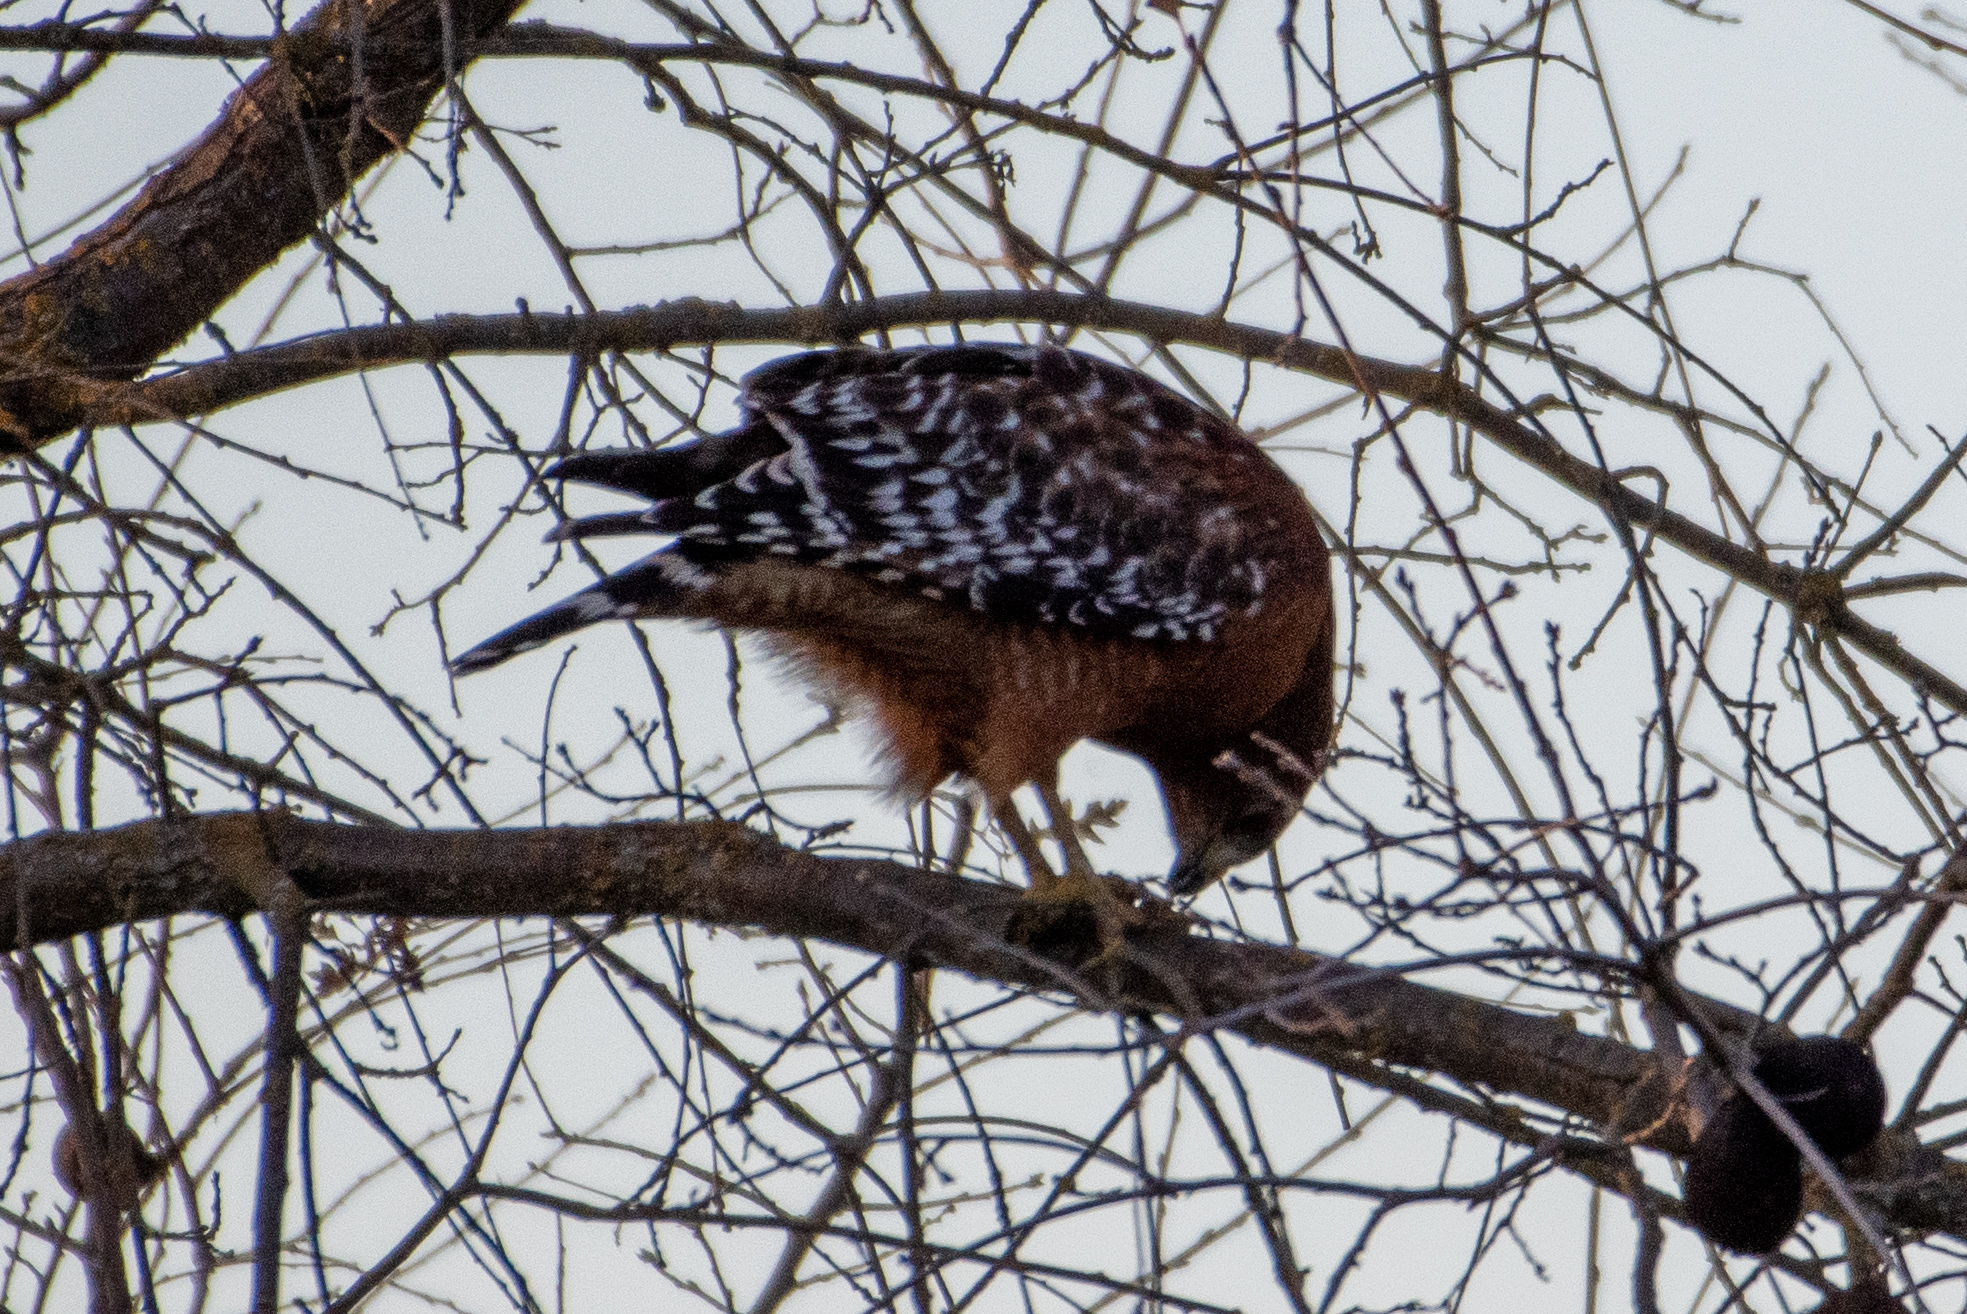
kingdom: Animalia
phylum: Chordata
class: Aves
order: Accipitriformes
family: Accipitridae
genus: Buteo
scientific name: Buteo lineatus
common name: Red-shouldered hawk
